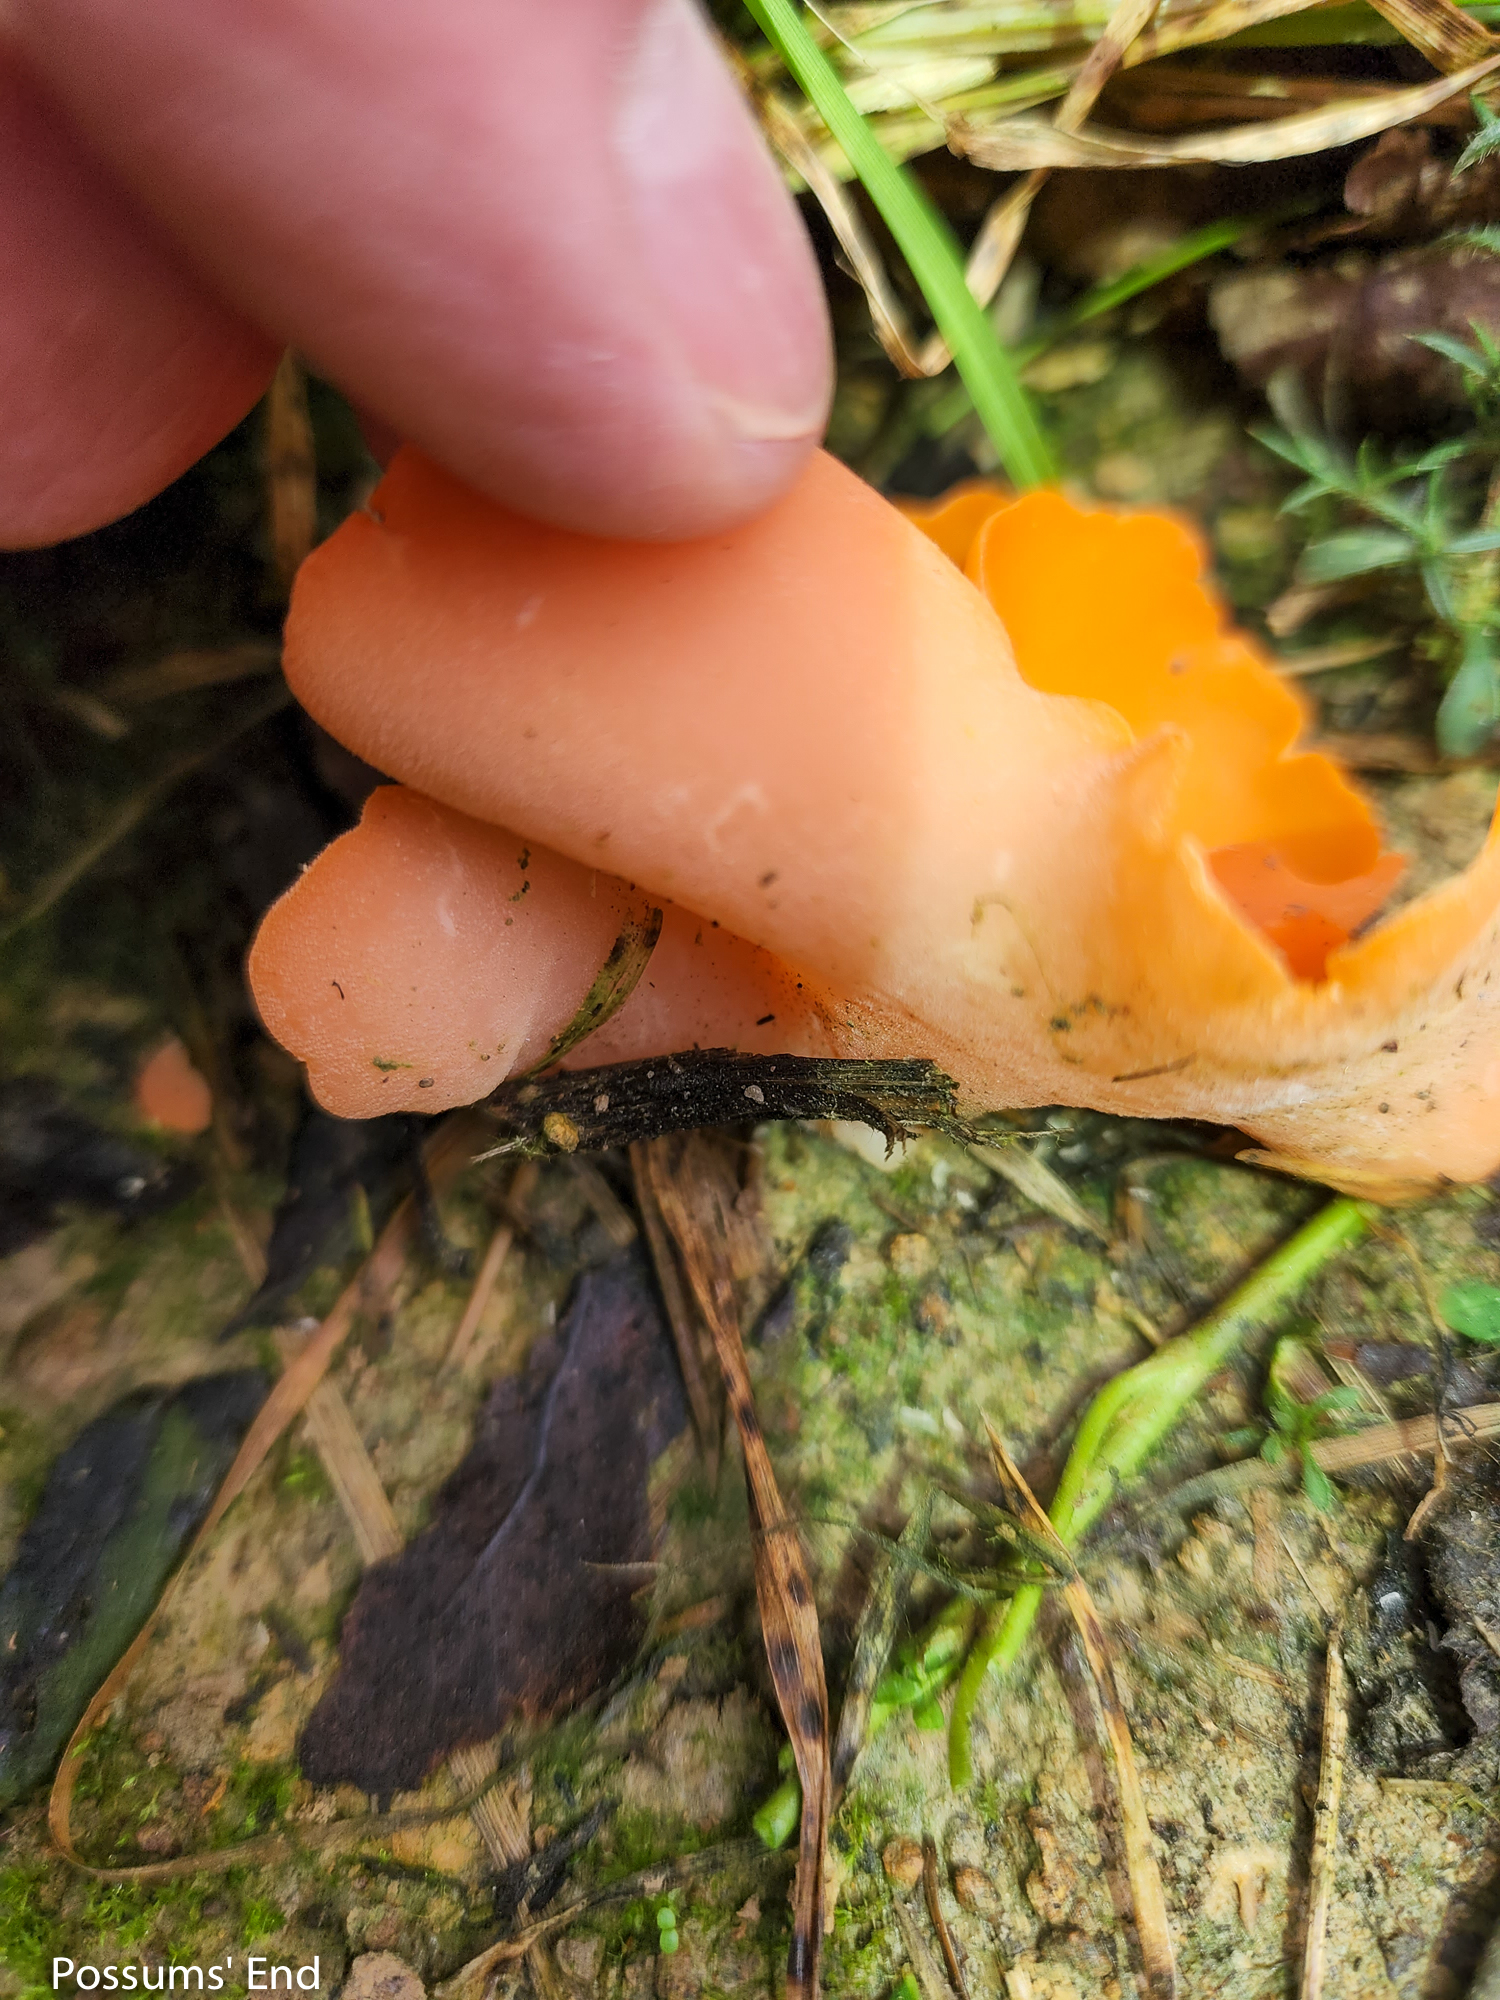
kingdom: Fungi
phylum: Ascomycota
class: Pezizomycetes
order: Pezizales
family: Pyronemataceae
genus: Aleuria
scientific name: Aleuria aurantia
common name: Orange peel fungus
